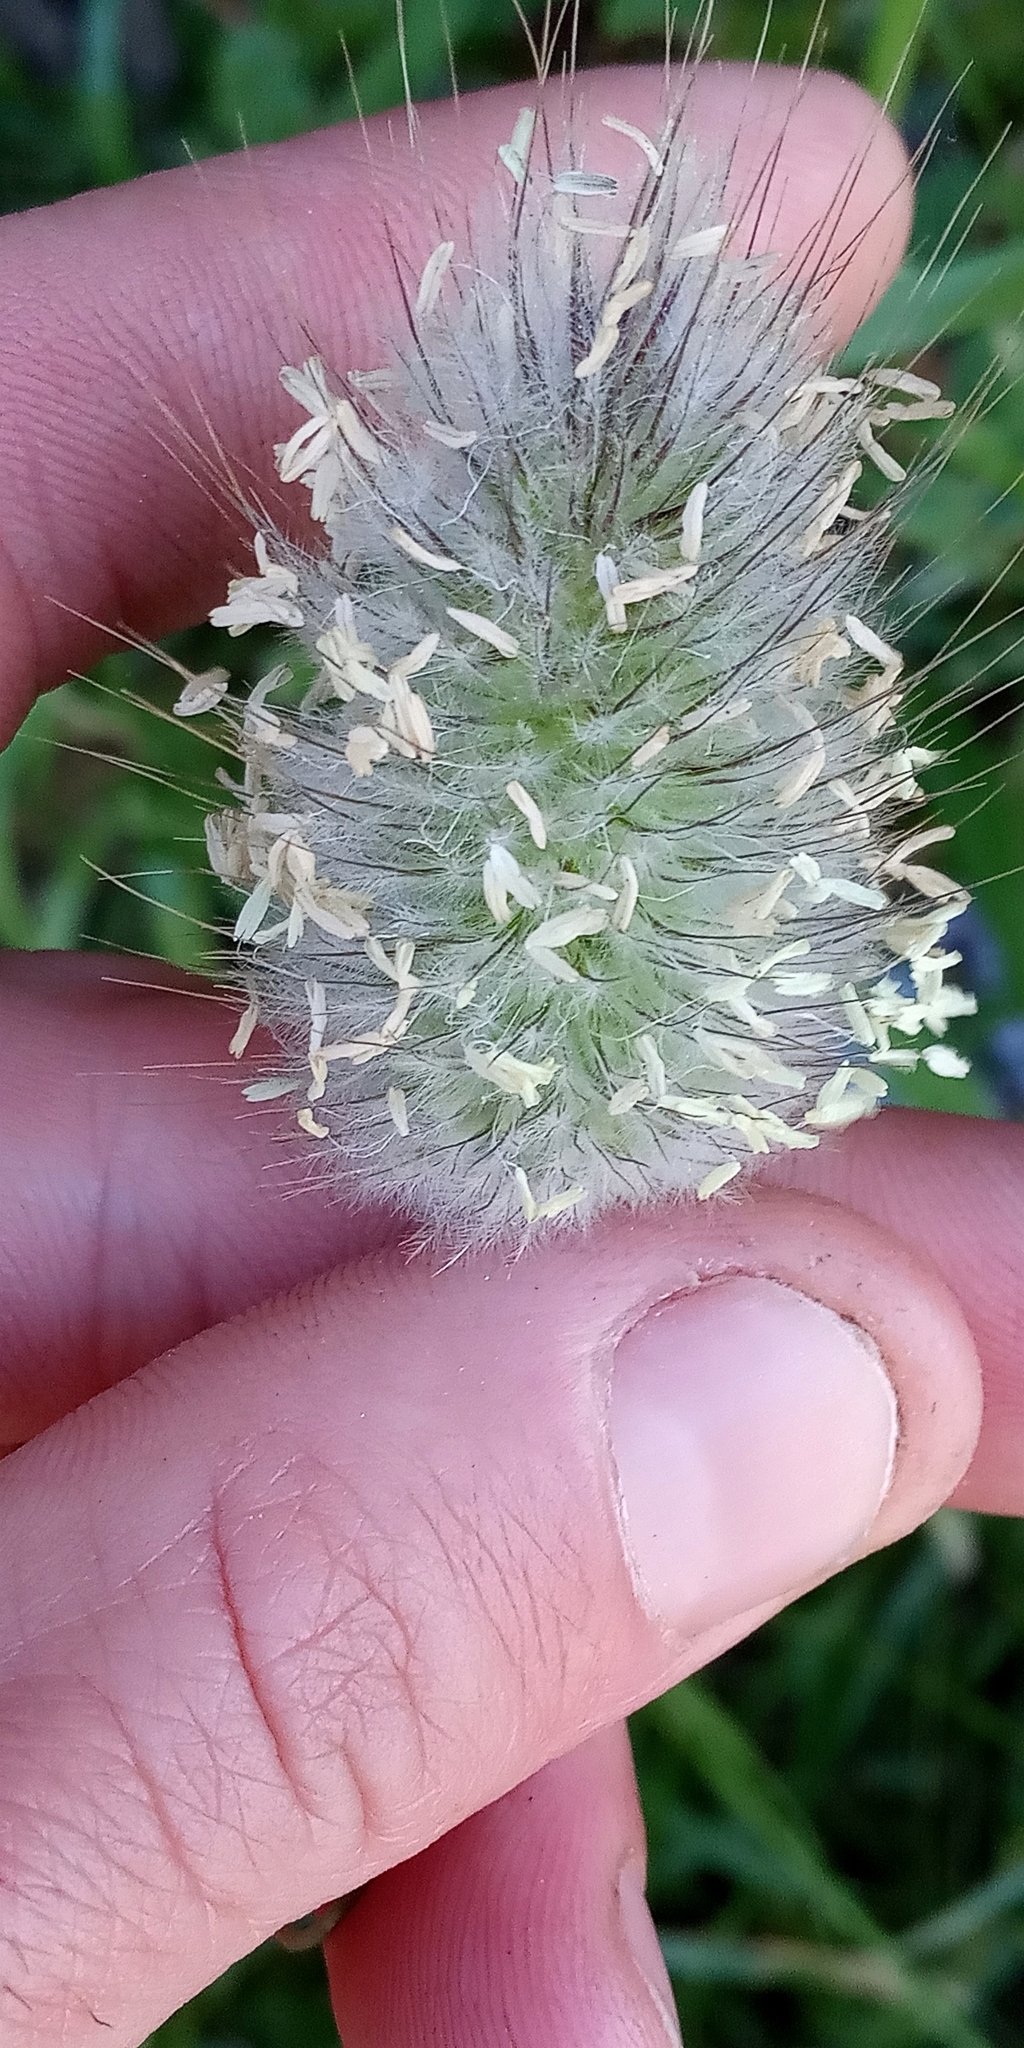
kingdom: Plantae
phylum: Tracheophyta
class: Liliopsida
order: Poales
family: Poaceae
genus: Lagurus
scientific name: Lagurus ovatus
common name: Hare's-tail
